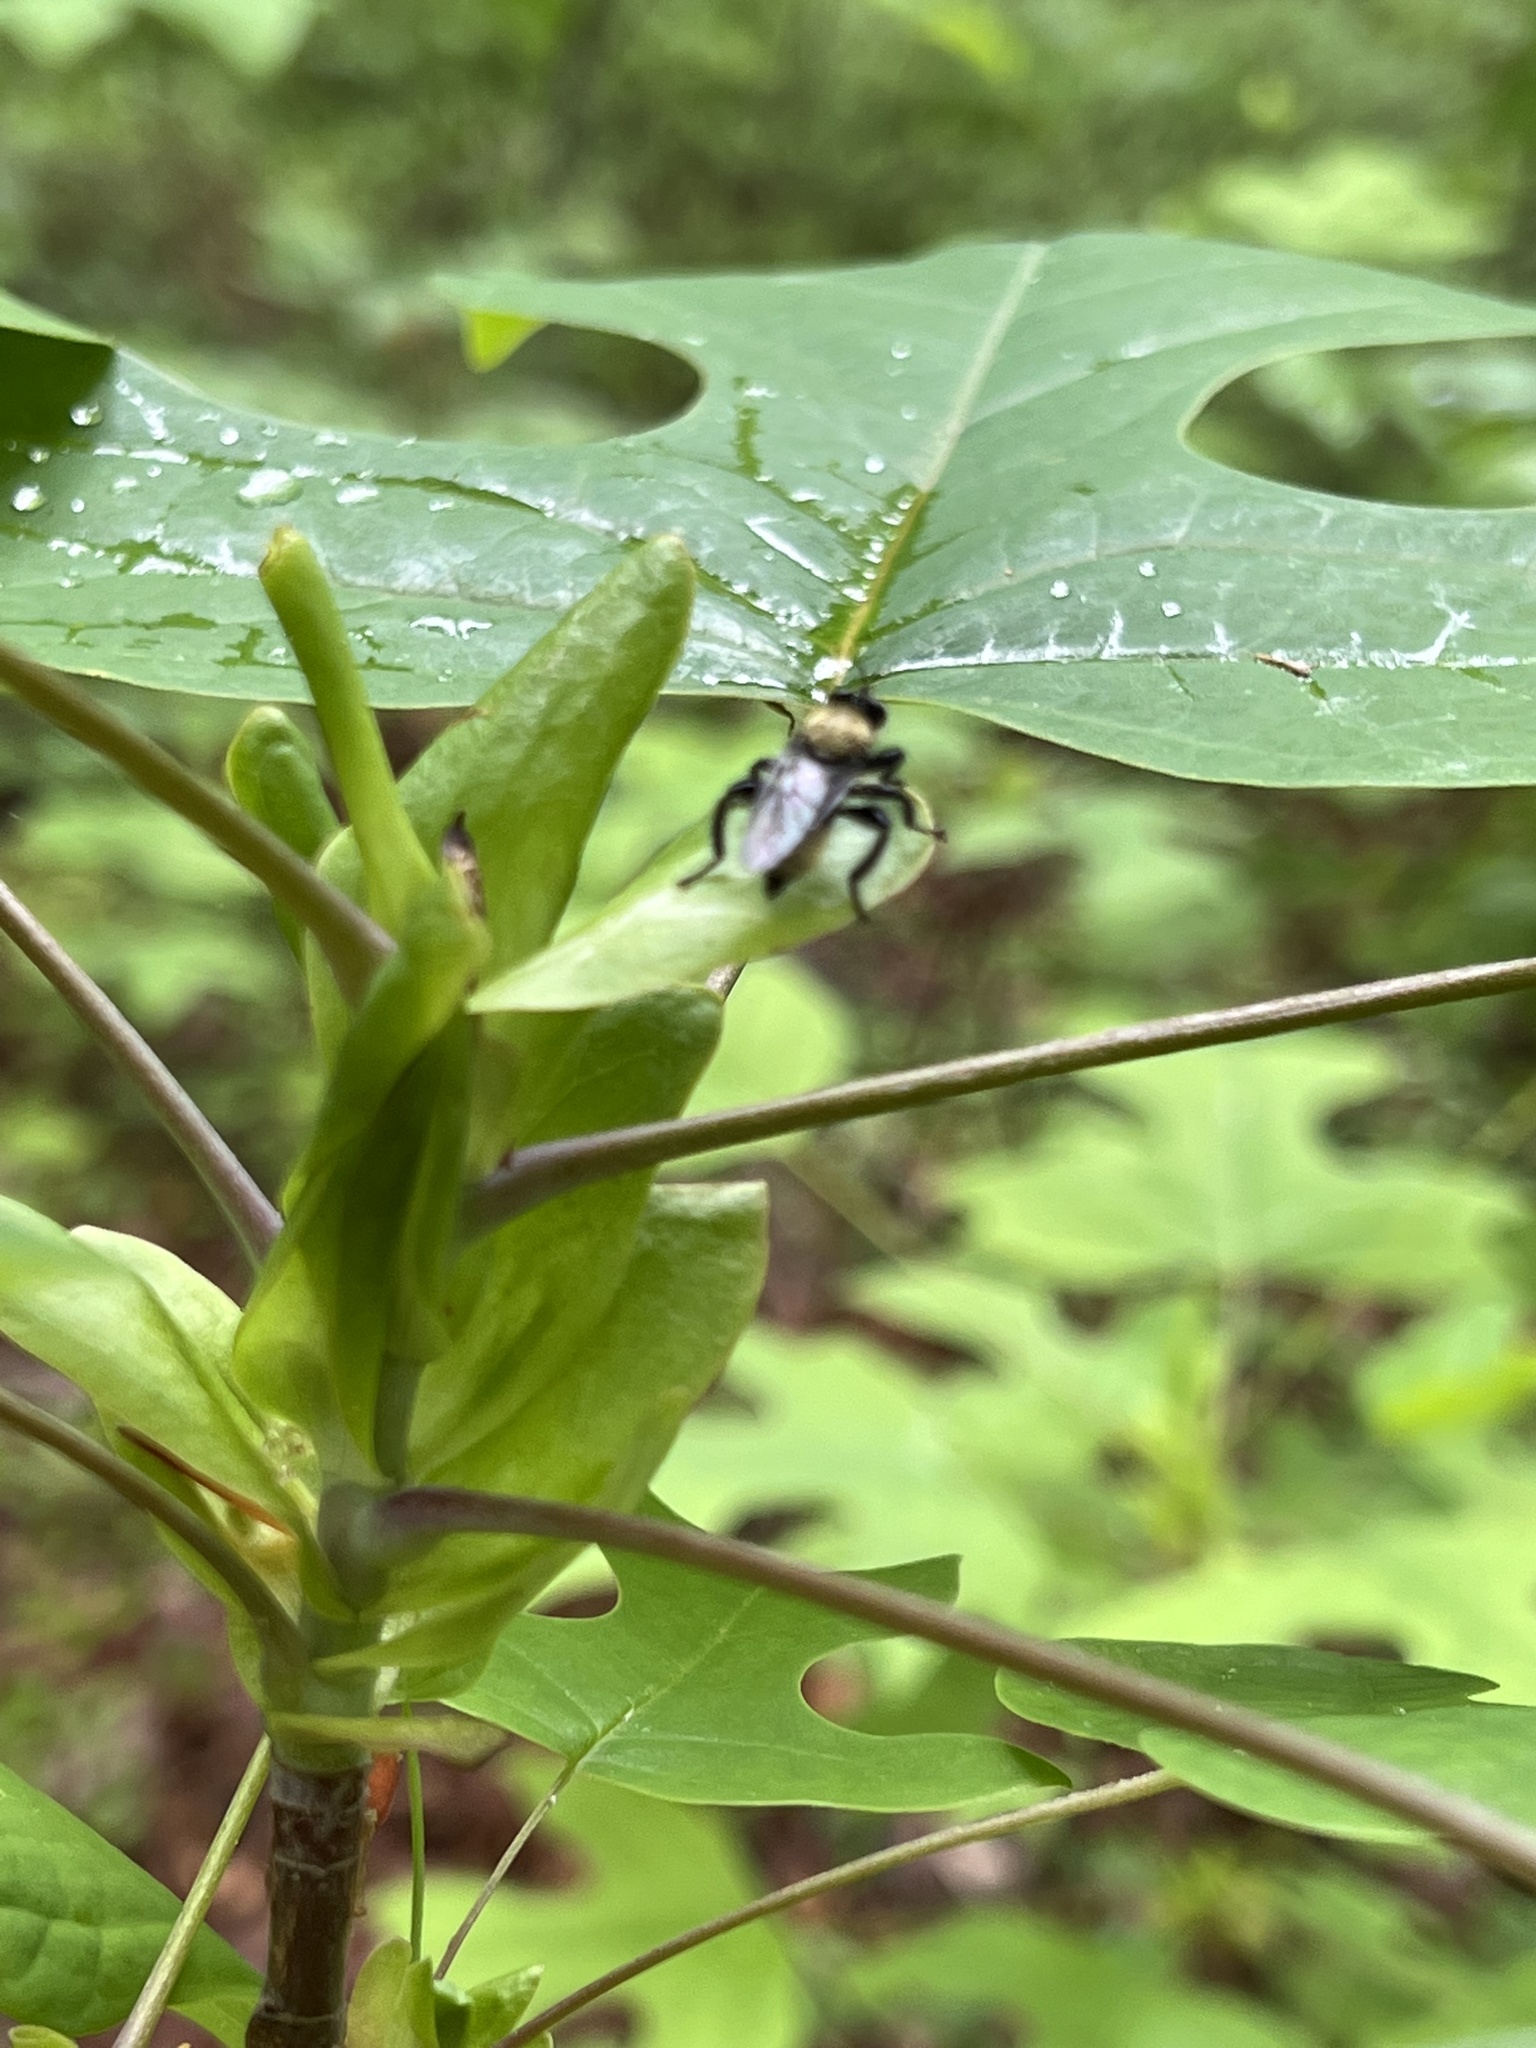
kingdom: Animalia
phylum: Arthropoda
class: Insecta
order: Diptera
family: Asilidae
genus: Laphria
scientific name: Laphria divisor
